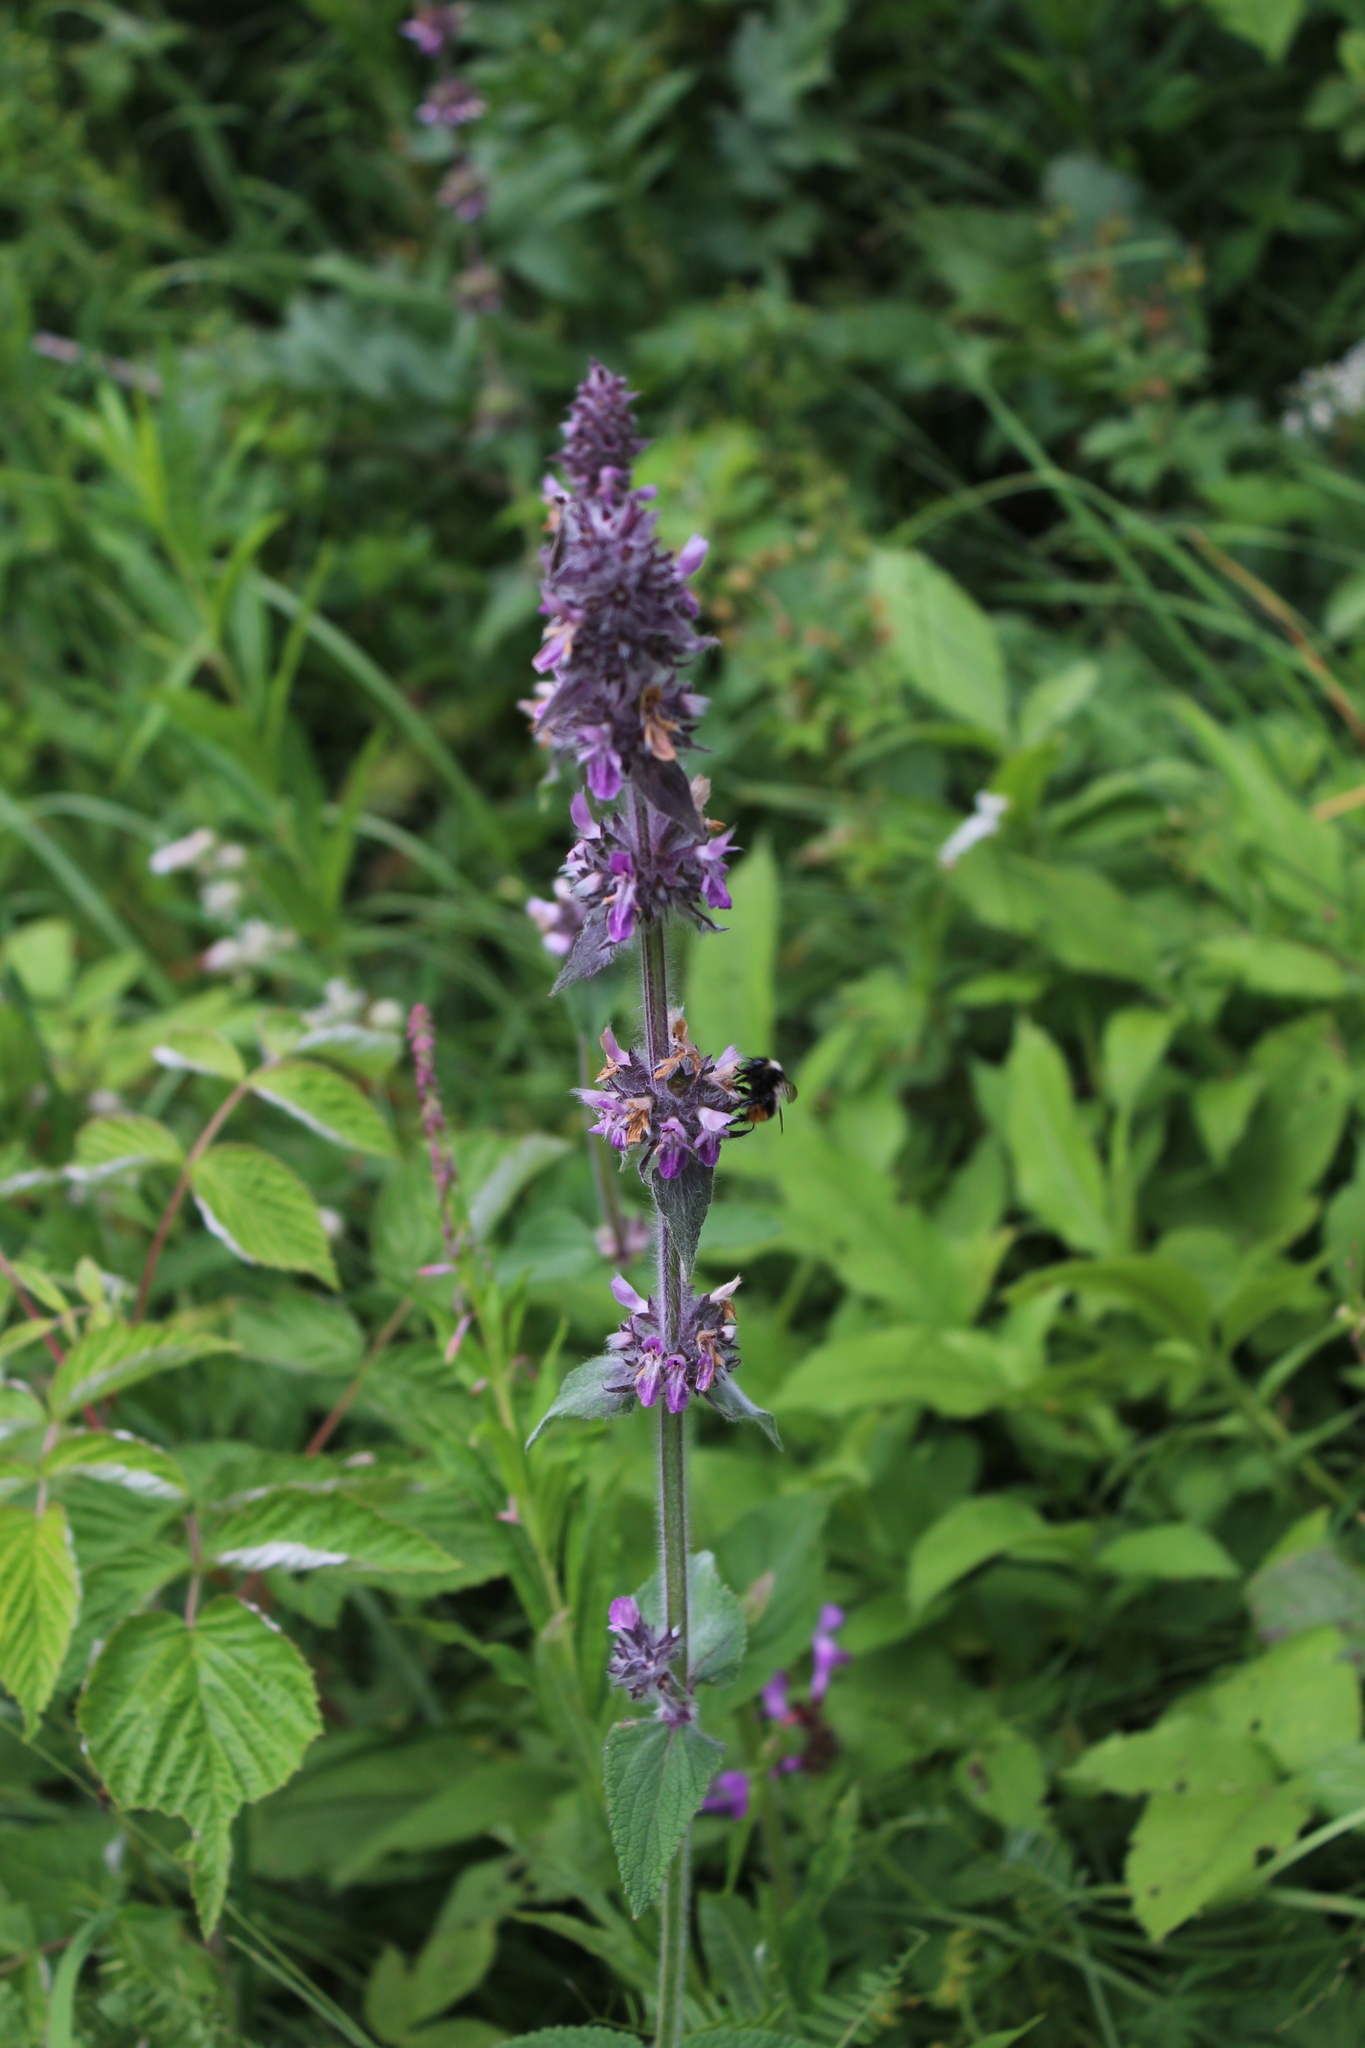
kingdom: Plantae
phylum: Tracheophyta
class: Magnoliopsida
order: Lamiales
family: Lamiaceae
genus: Stachys
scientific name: Stachys balansae
